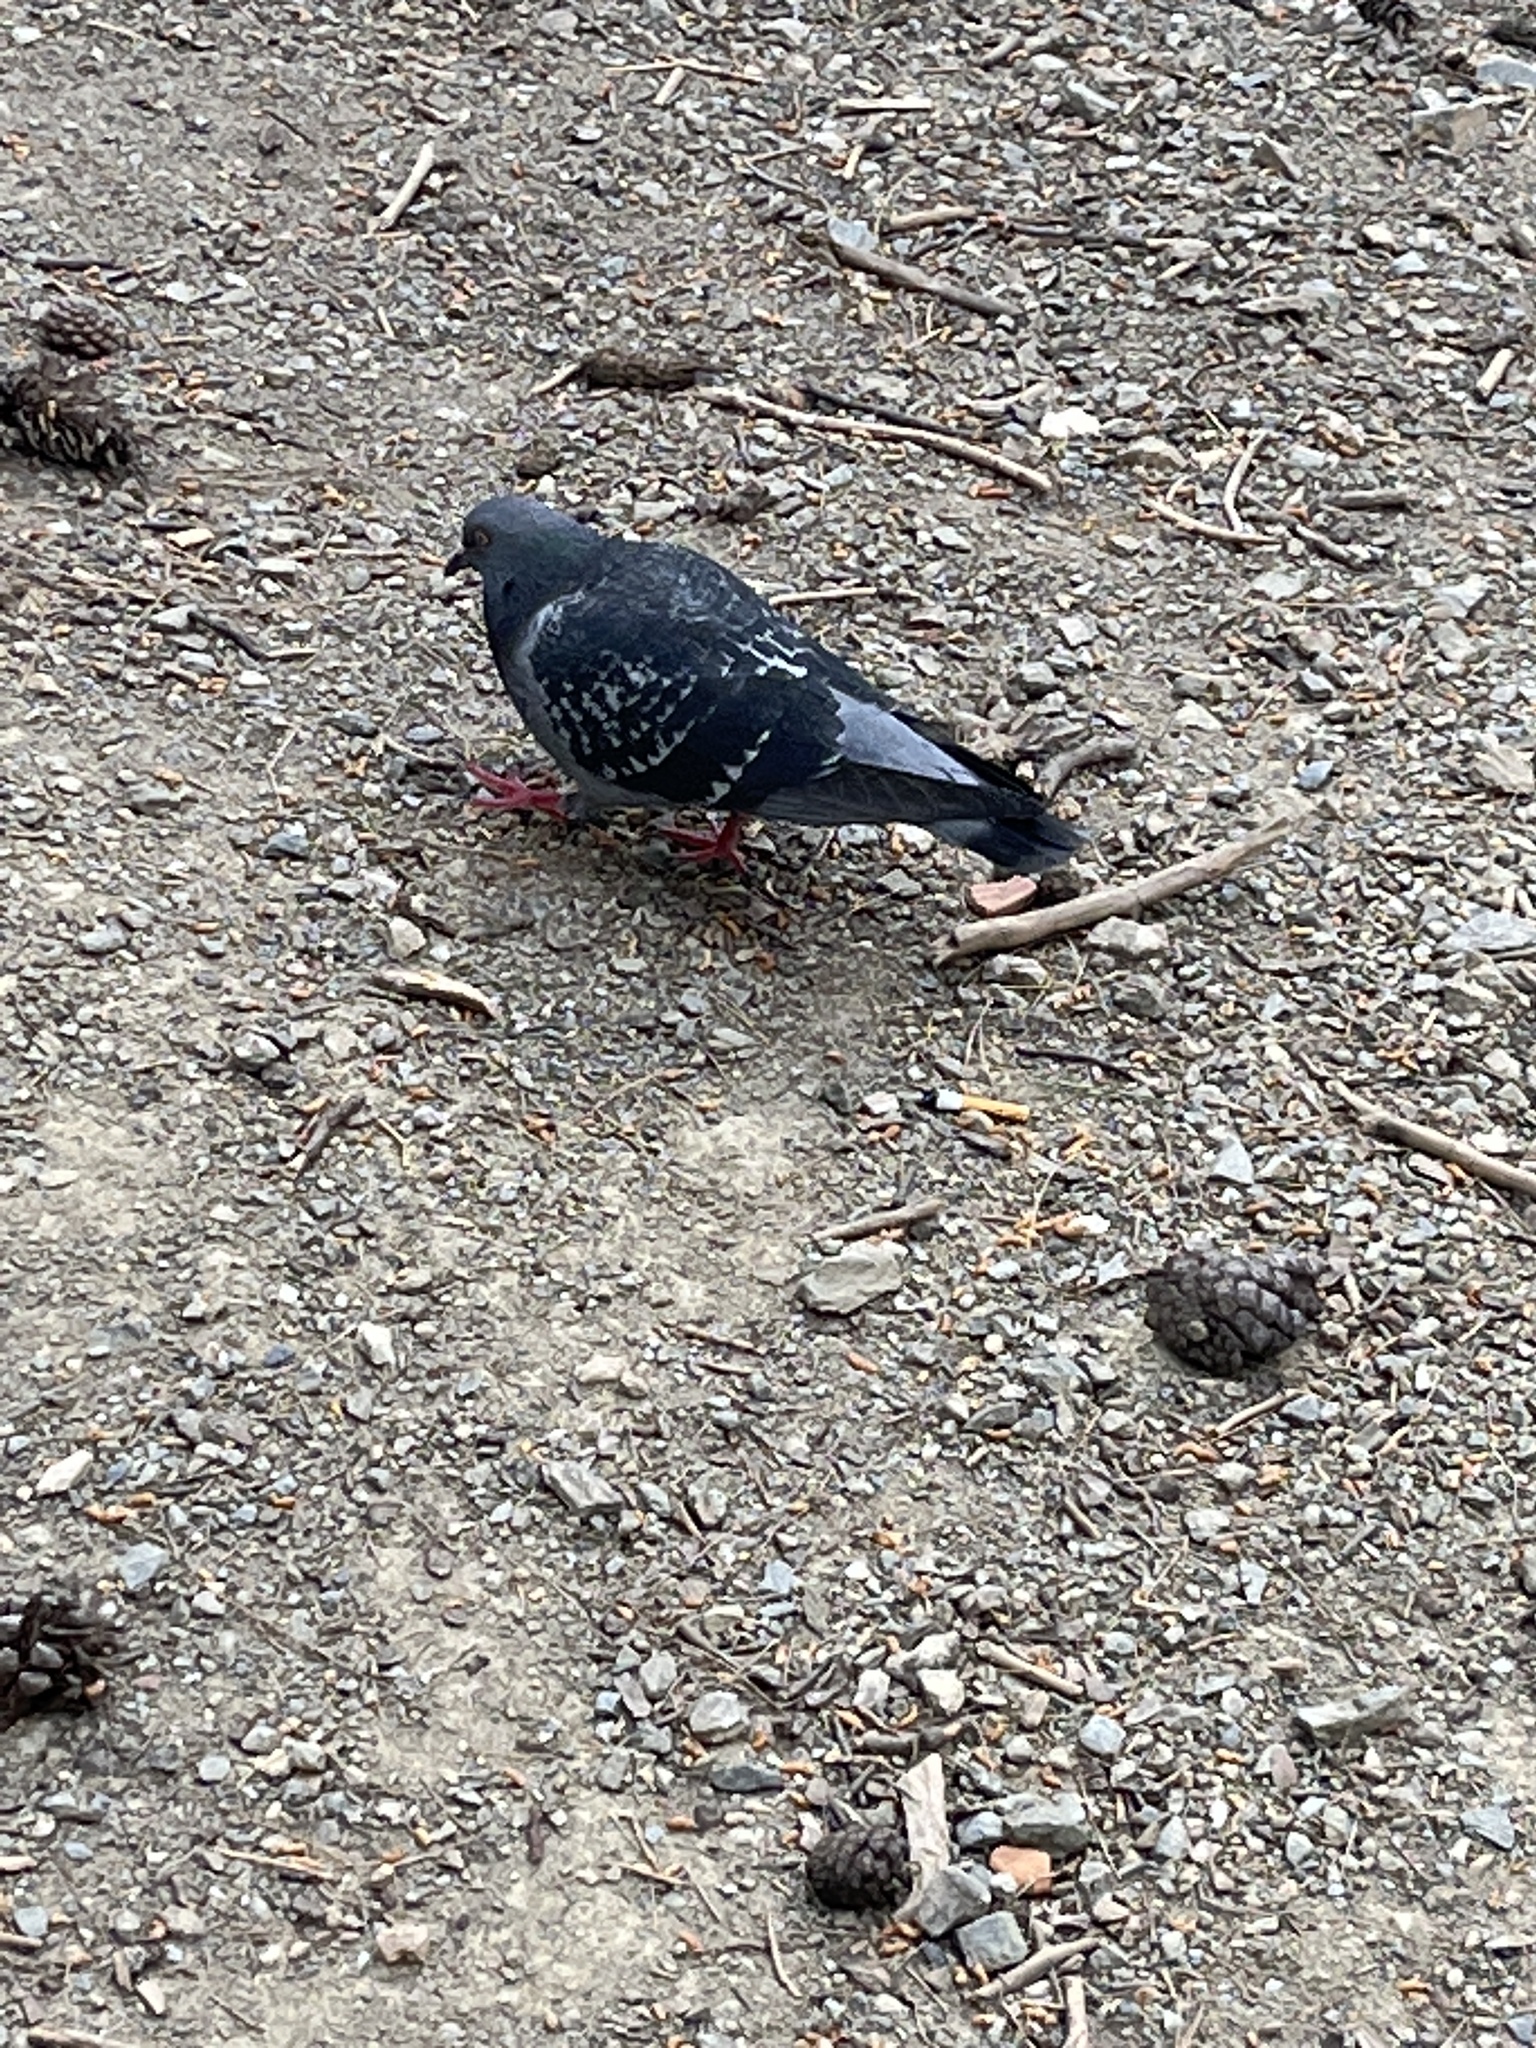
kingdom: Animalia
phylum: Chordata
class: Aves
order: Columbiformes
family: Columbidae
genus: Columba
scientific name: Columba livia
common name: Rock pigeon
